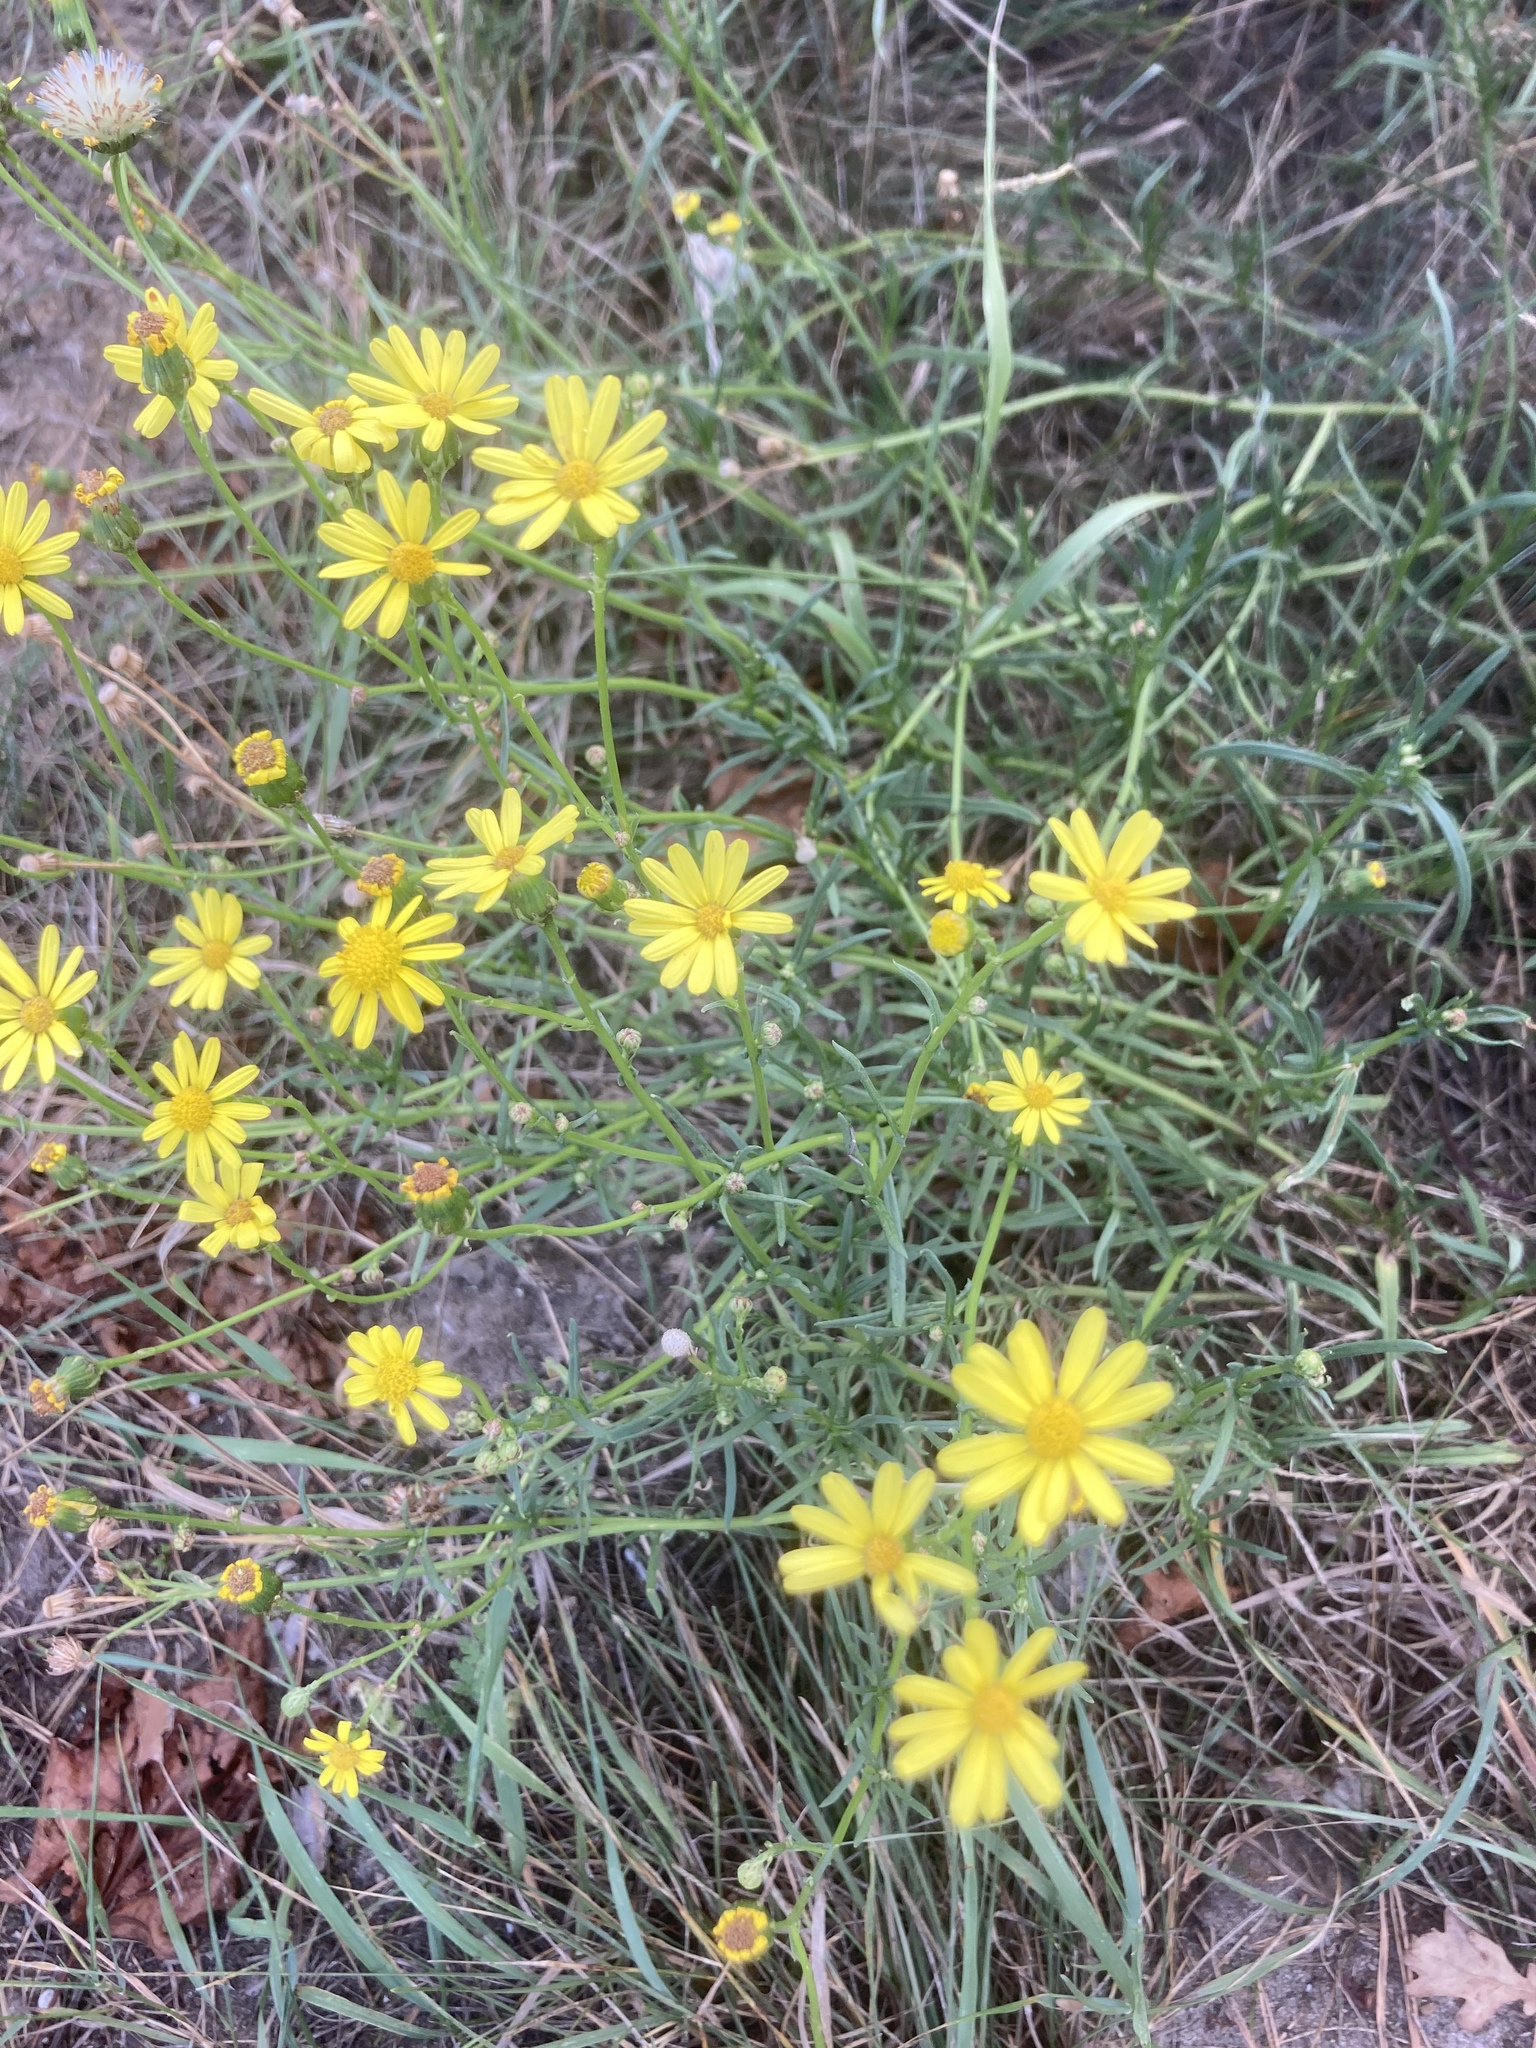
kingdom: Plantae
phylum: Tracheophyta
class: Magnoliopsida
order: Asterales
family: Asteraceae
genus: Senecio
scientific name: Senecio inaequidens
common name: Narrow-leaved ragwort
